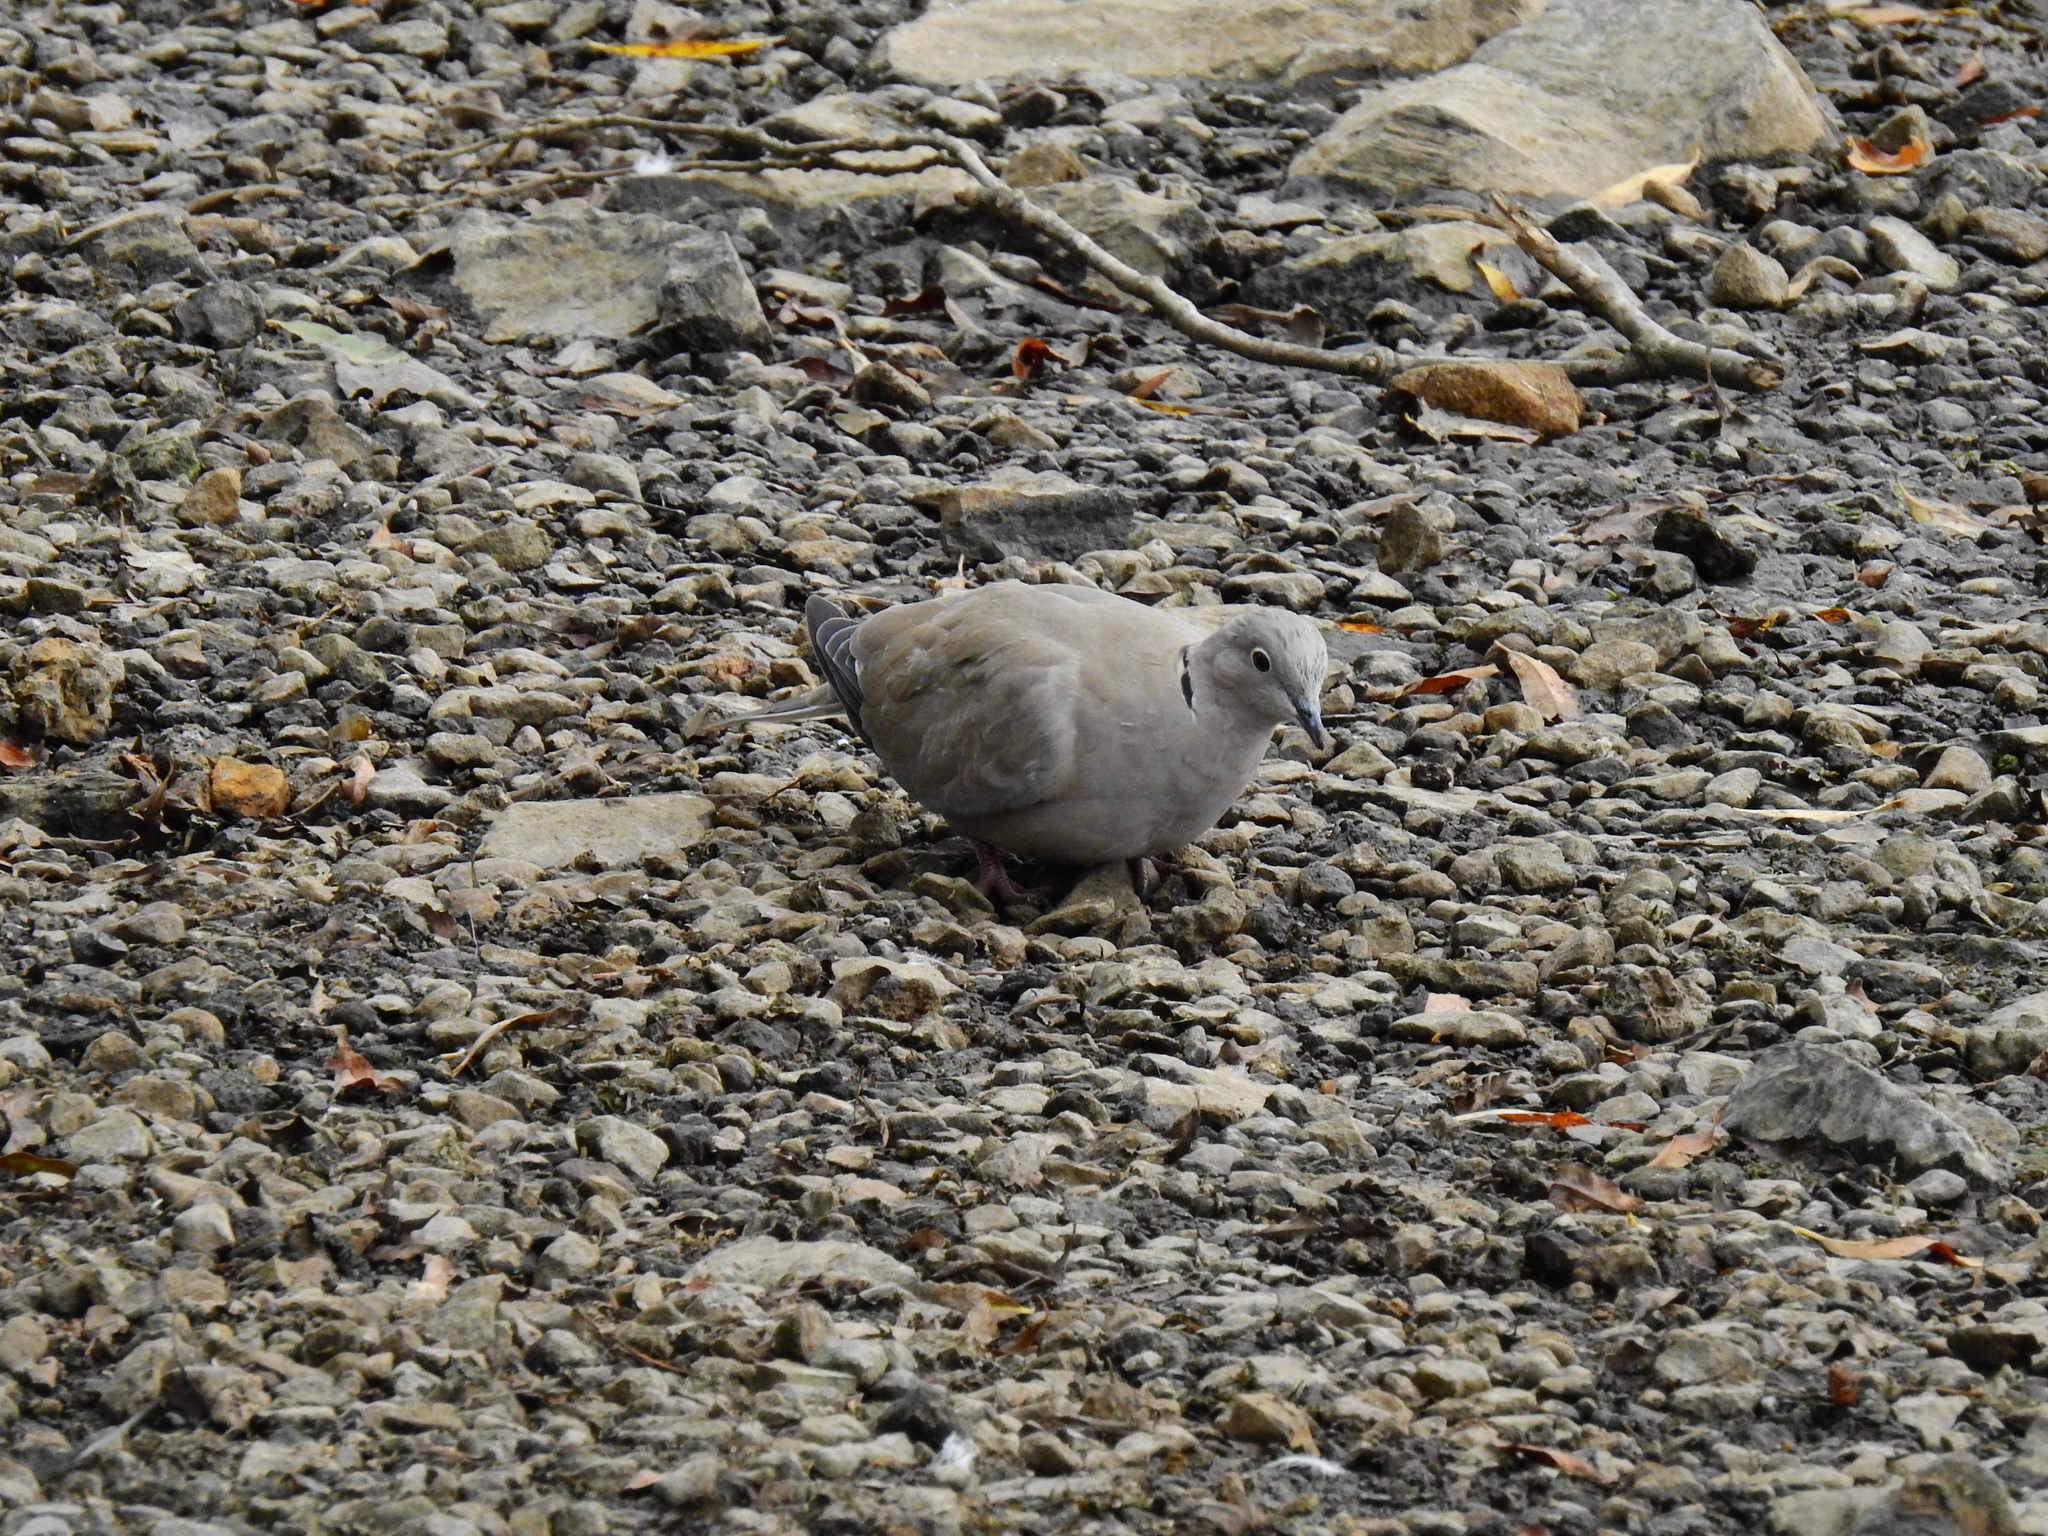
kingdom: Animalia
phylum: Chordata
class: Aves
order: Columbiformes
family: Columbidae
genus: Streptopelia
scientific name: Streptopelia decaocto
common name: Eurasian collared dove
